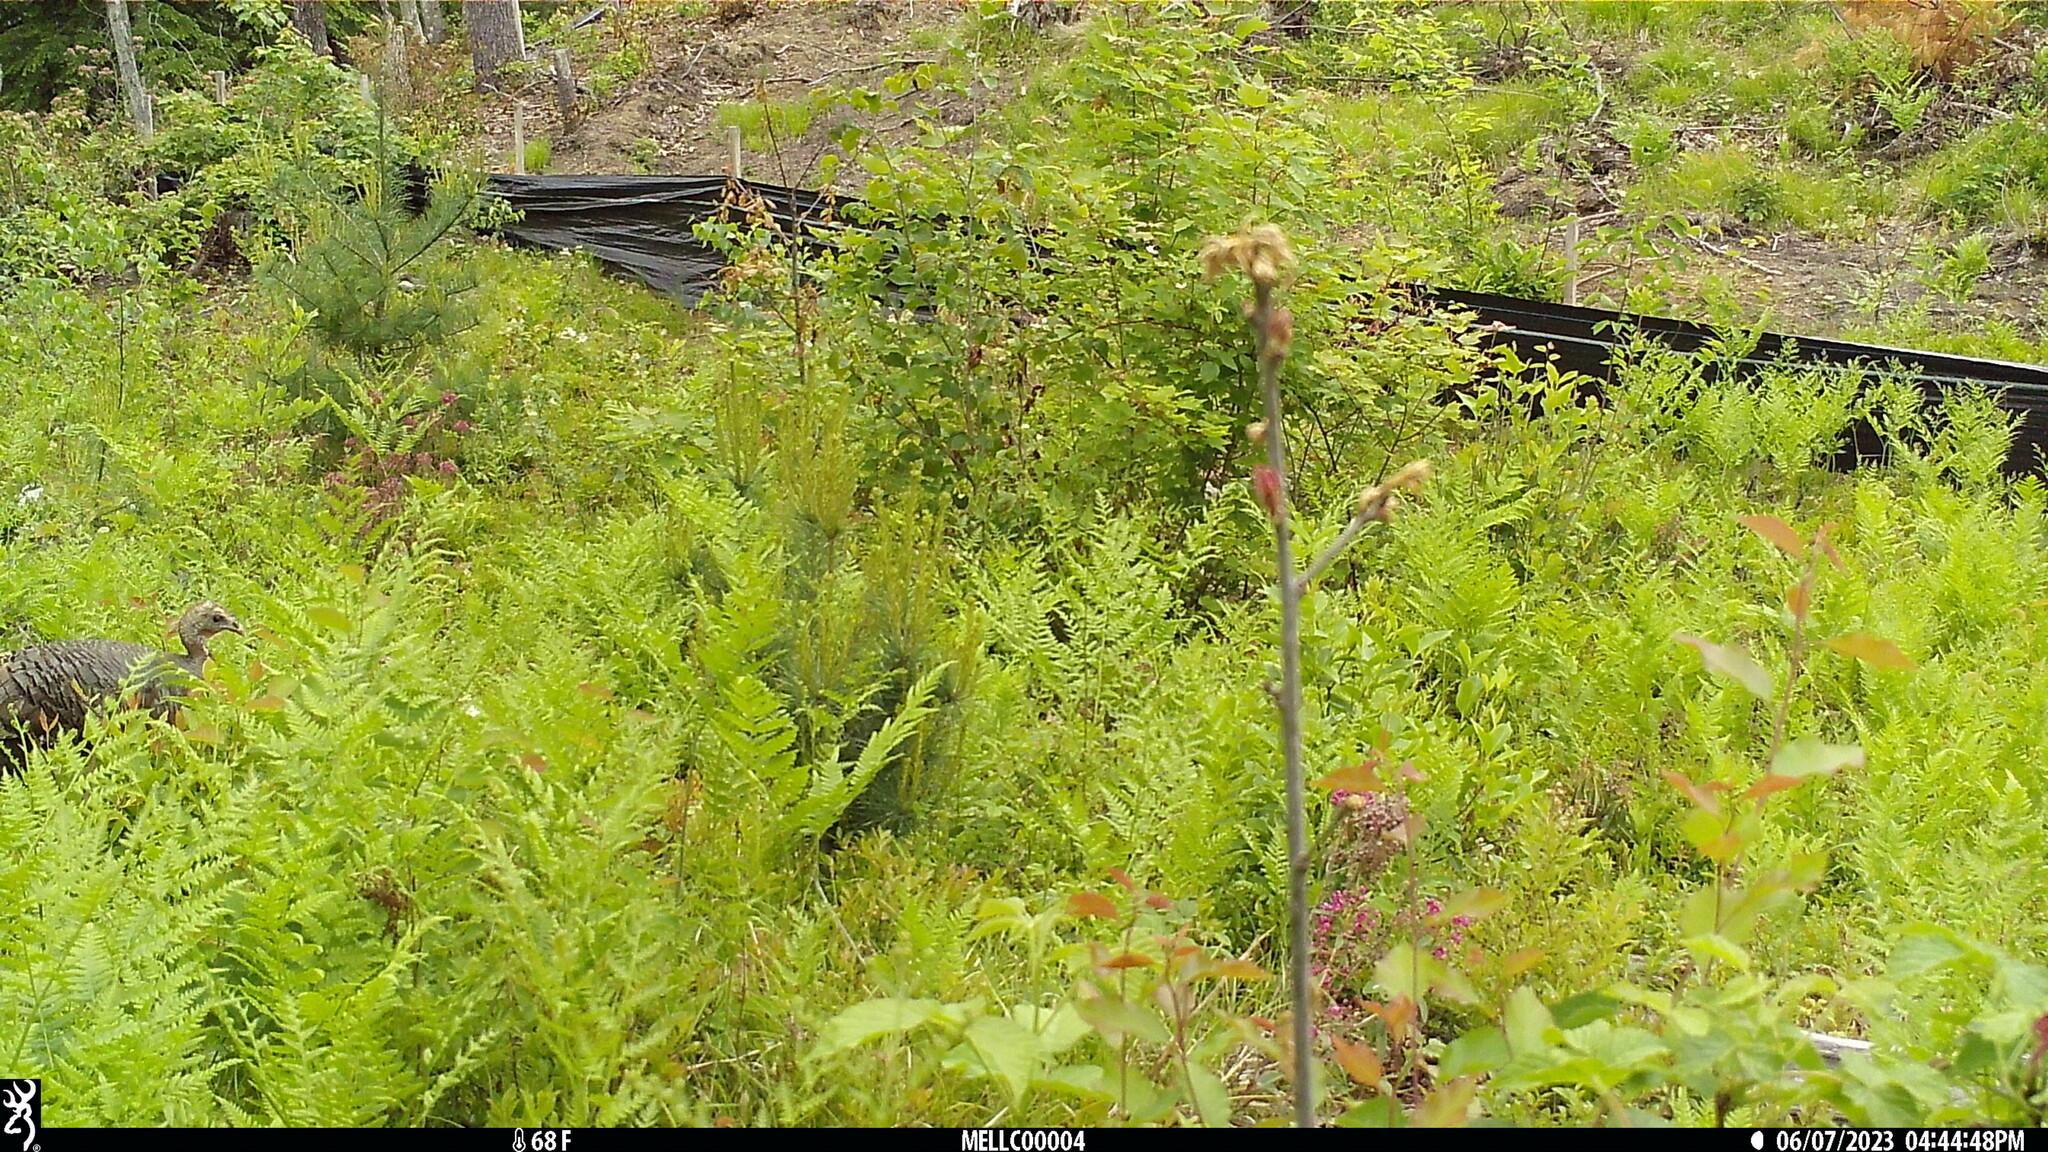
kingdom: Animalia
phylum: Chordata
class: Aves
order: Galliformes
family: Phasianidae
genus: Meleagris
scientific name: Meleagris gallopavo
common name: Wild turkey
